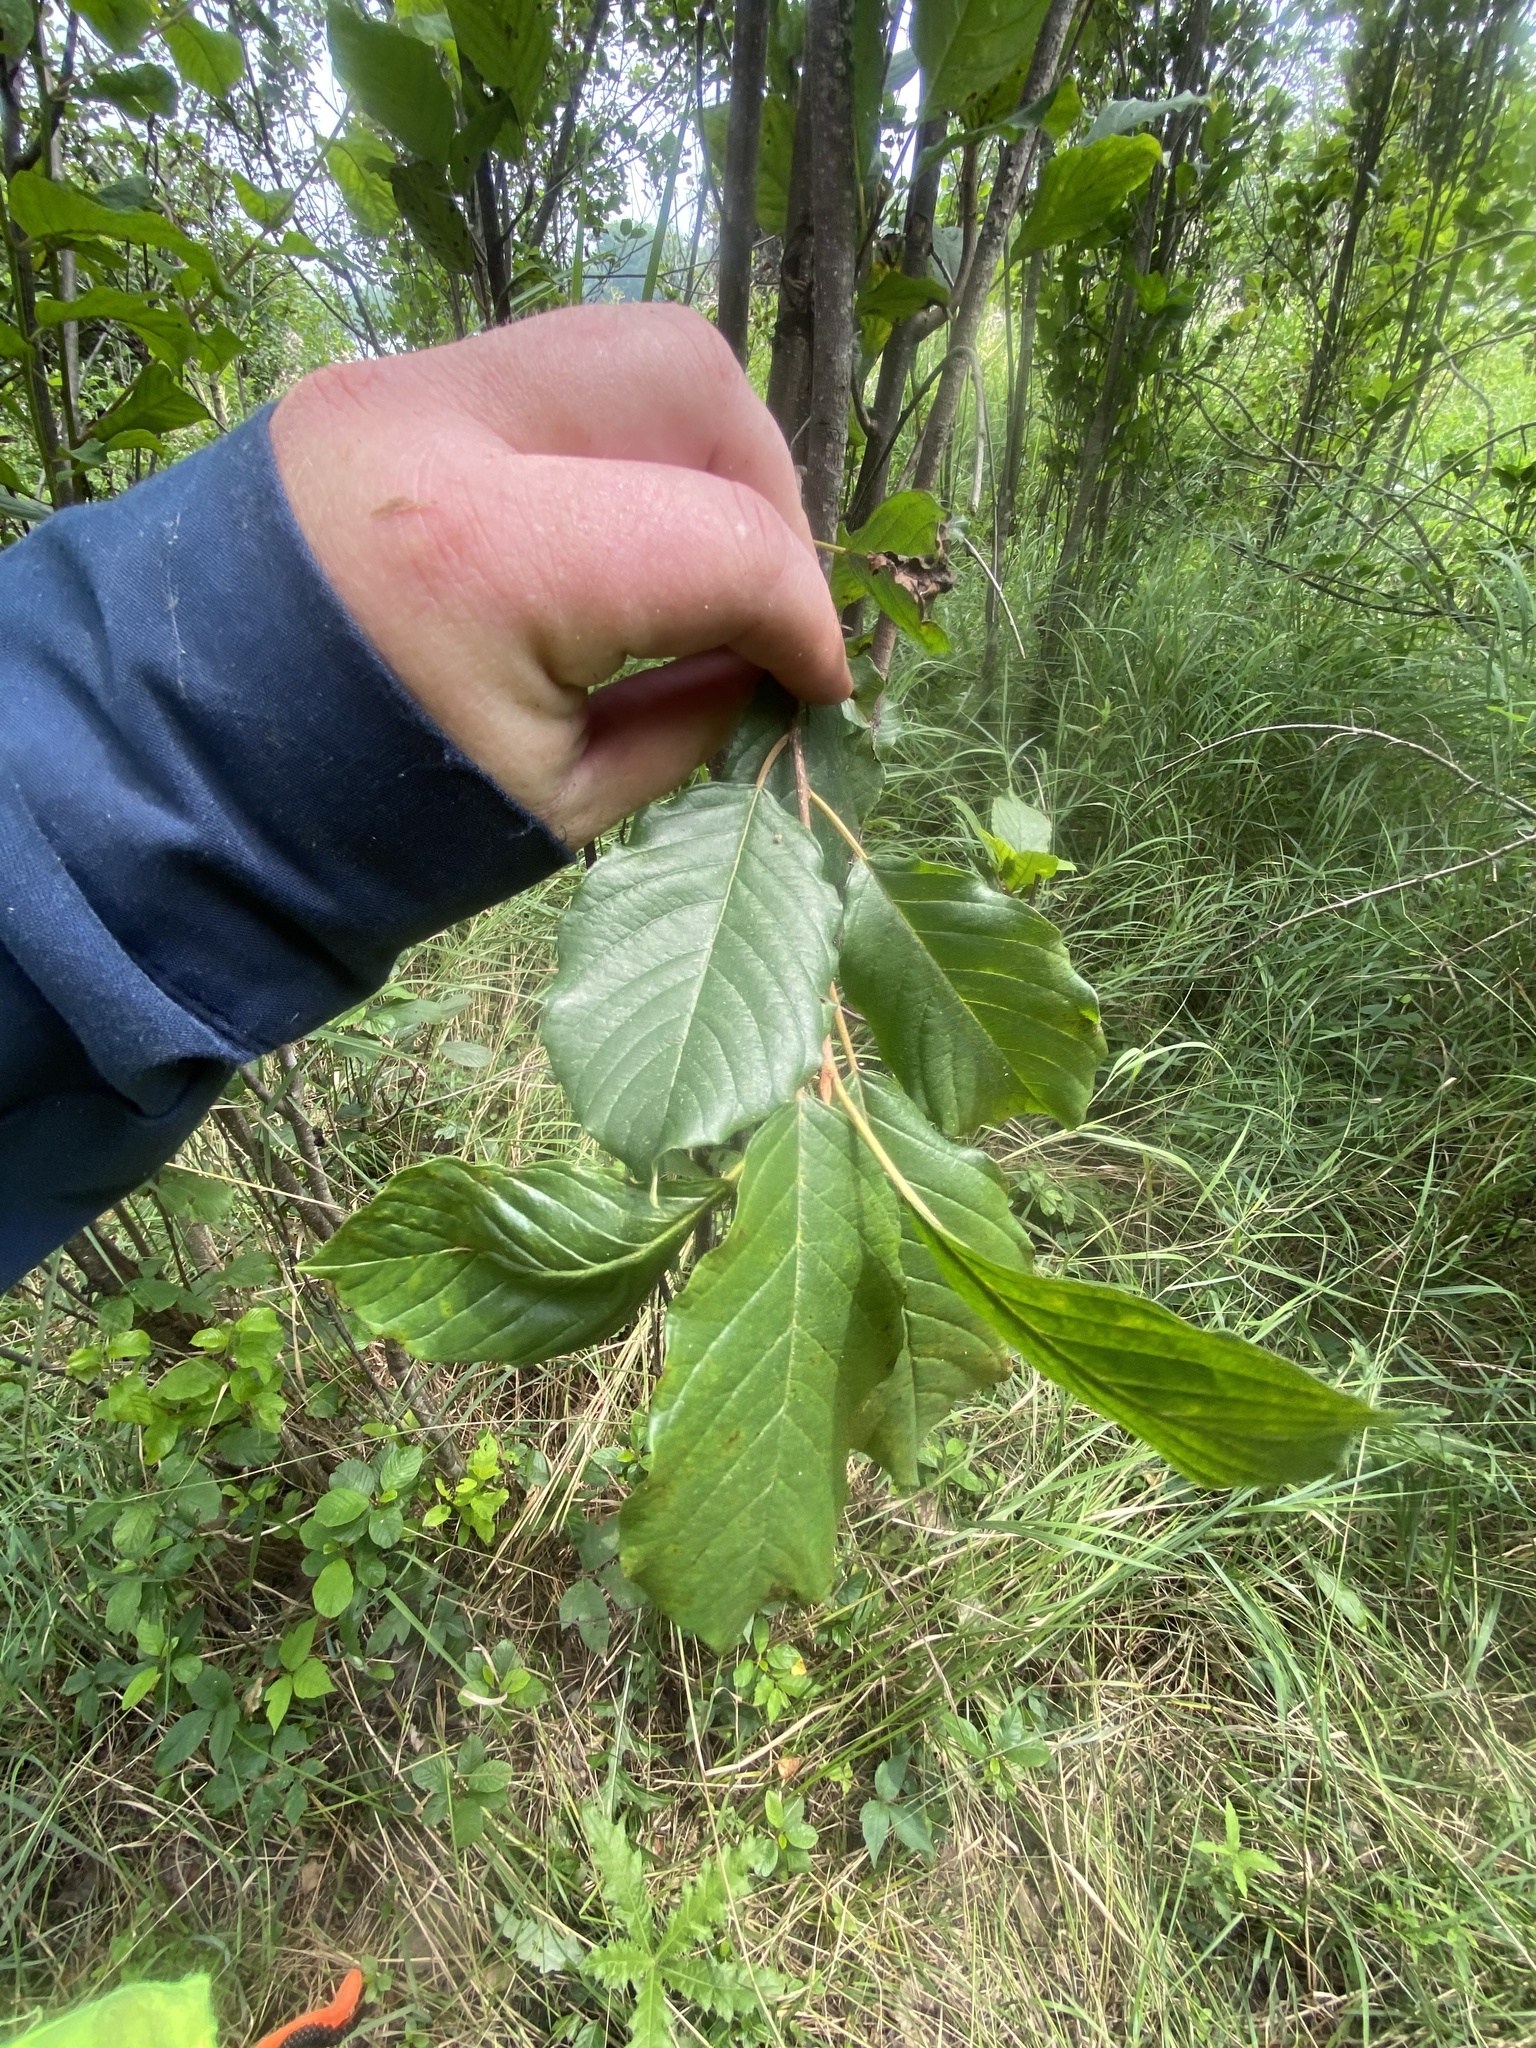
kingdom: Plantae
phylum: Tracheophyta
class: Magnoliopsida
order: Rosales
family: Rhamnaceae
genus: Frangula
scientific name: Frangula alnus
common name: Alder buckthorn
